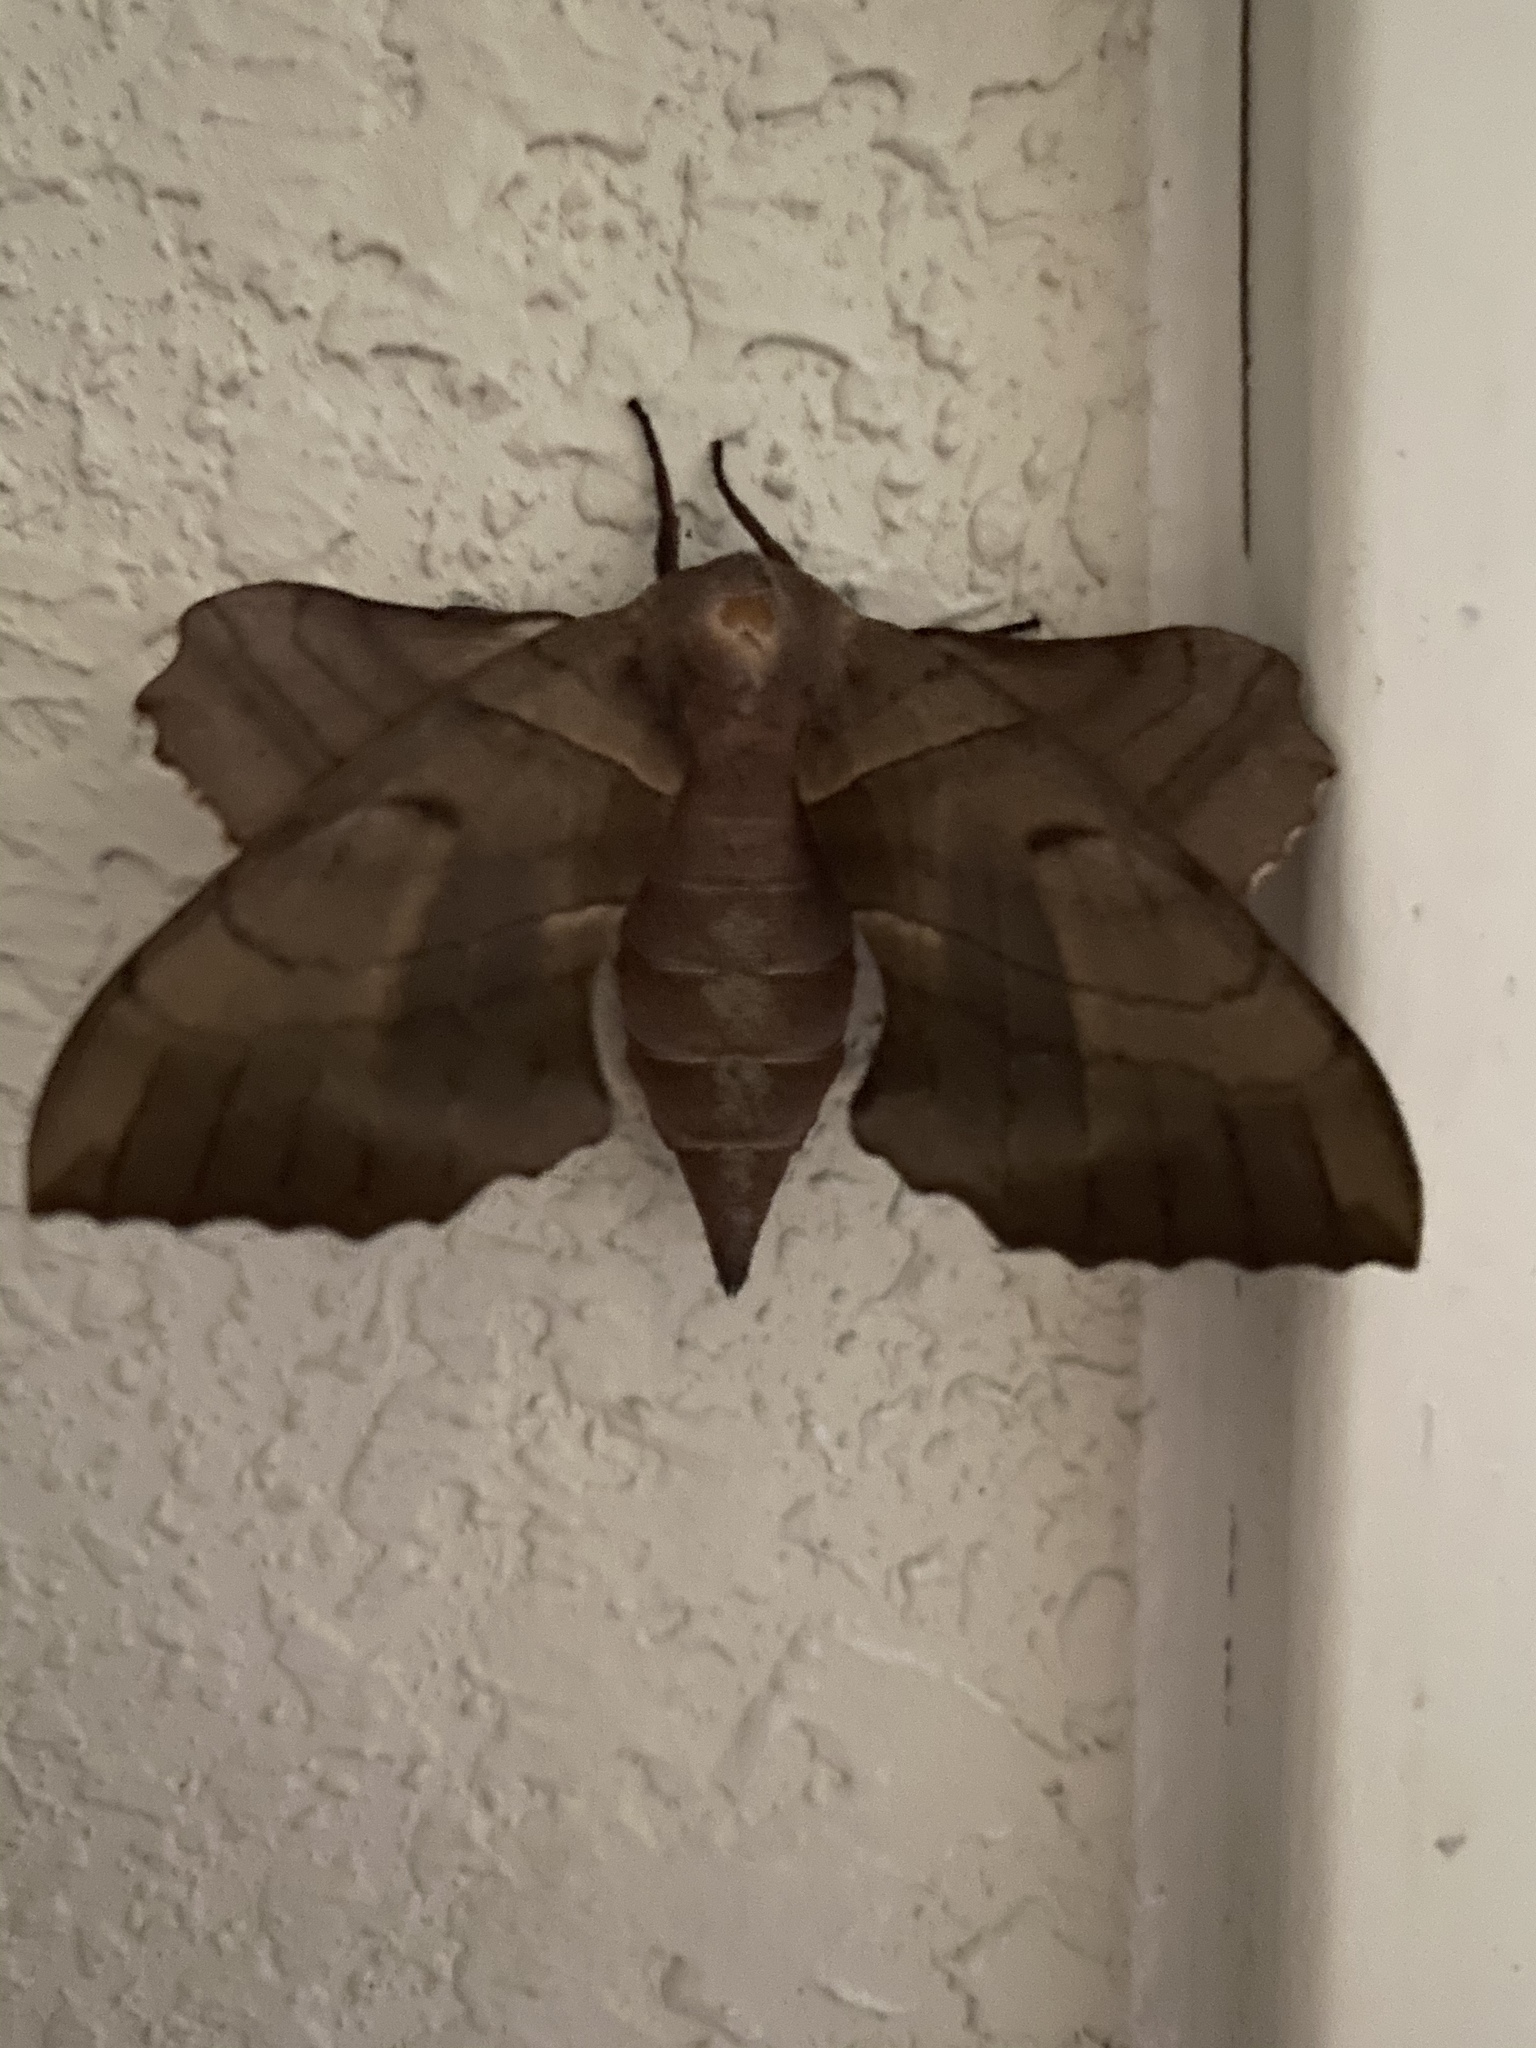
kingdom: Animalia
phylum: Arthropoda
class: Insecta
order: Lepidoptera
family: Sphingidae
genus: Amorpha
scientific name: Amorpha juglandis
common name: Walnut sphinx
